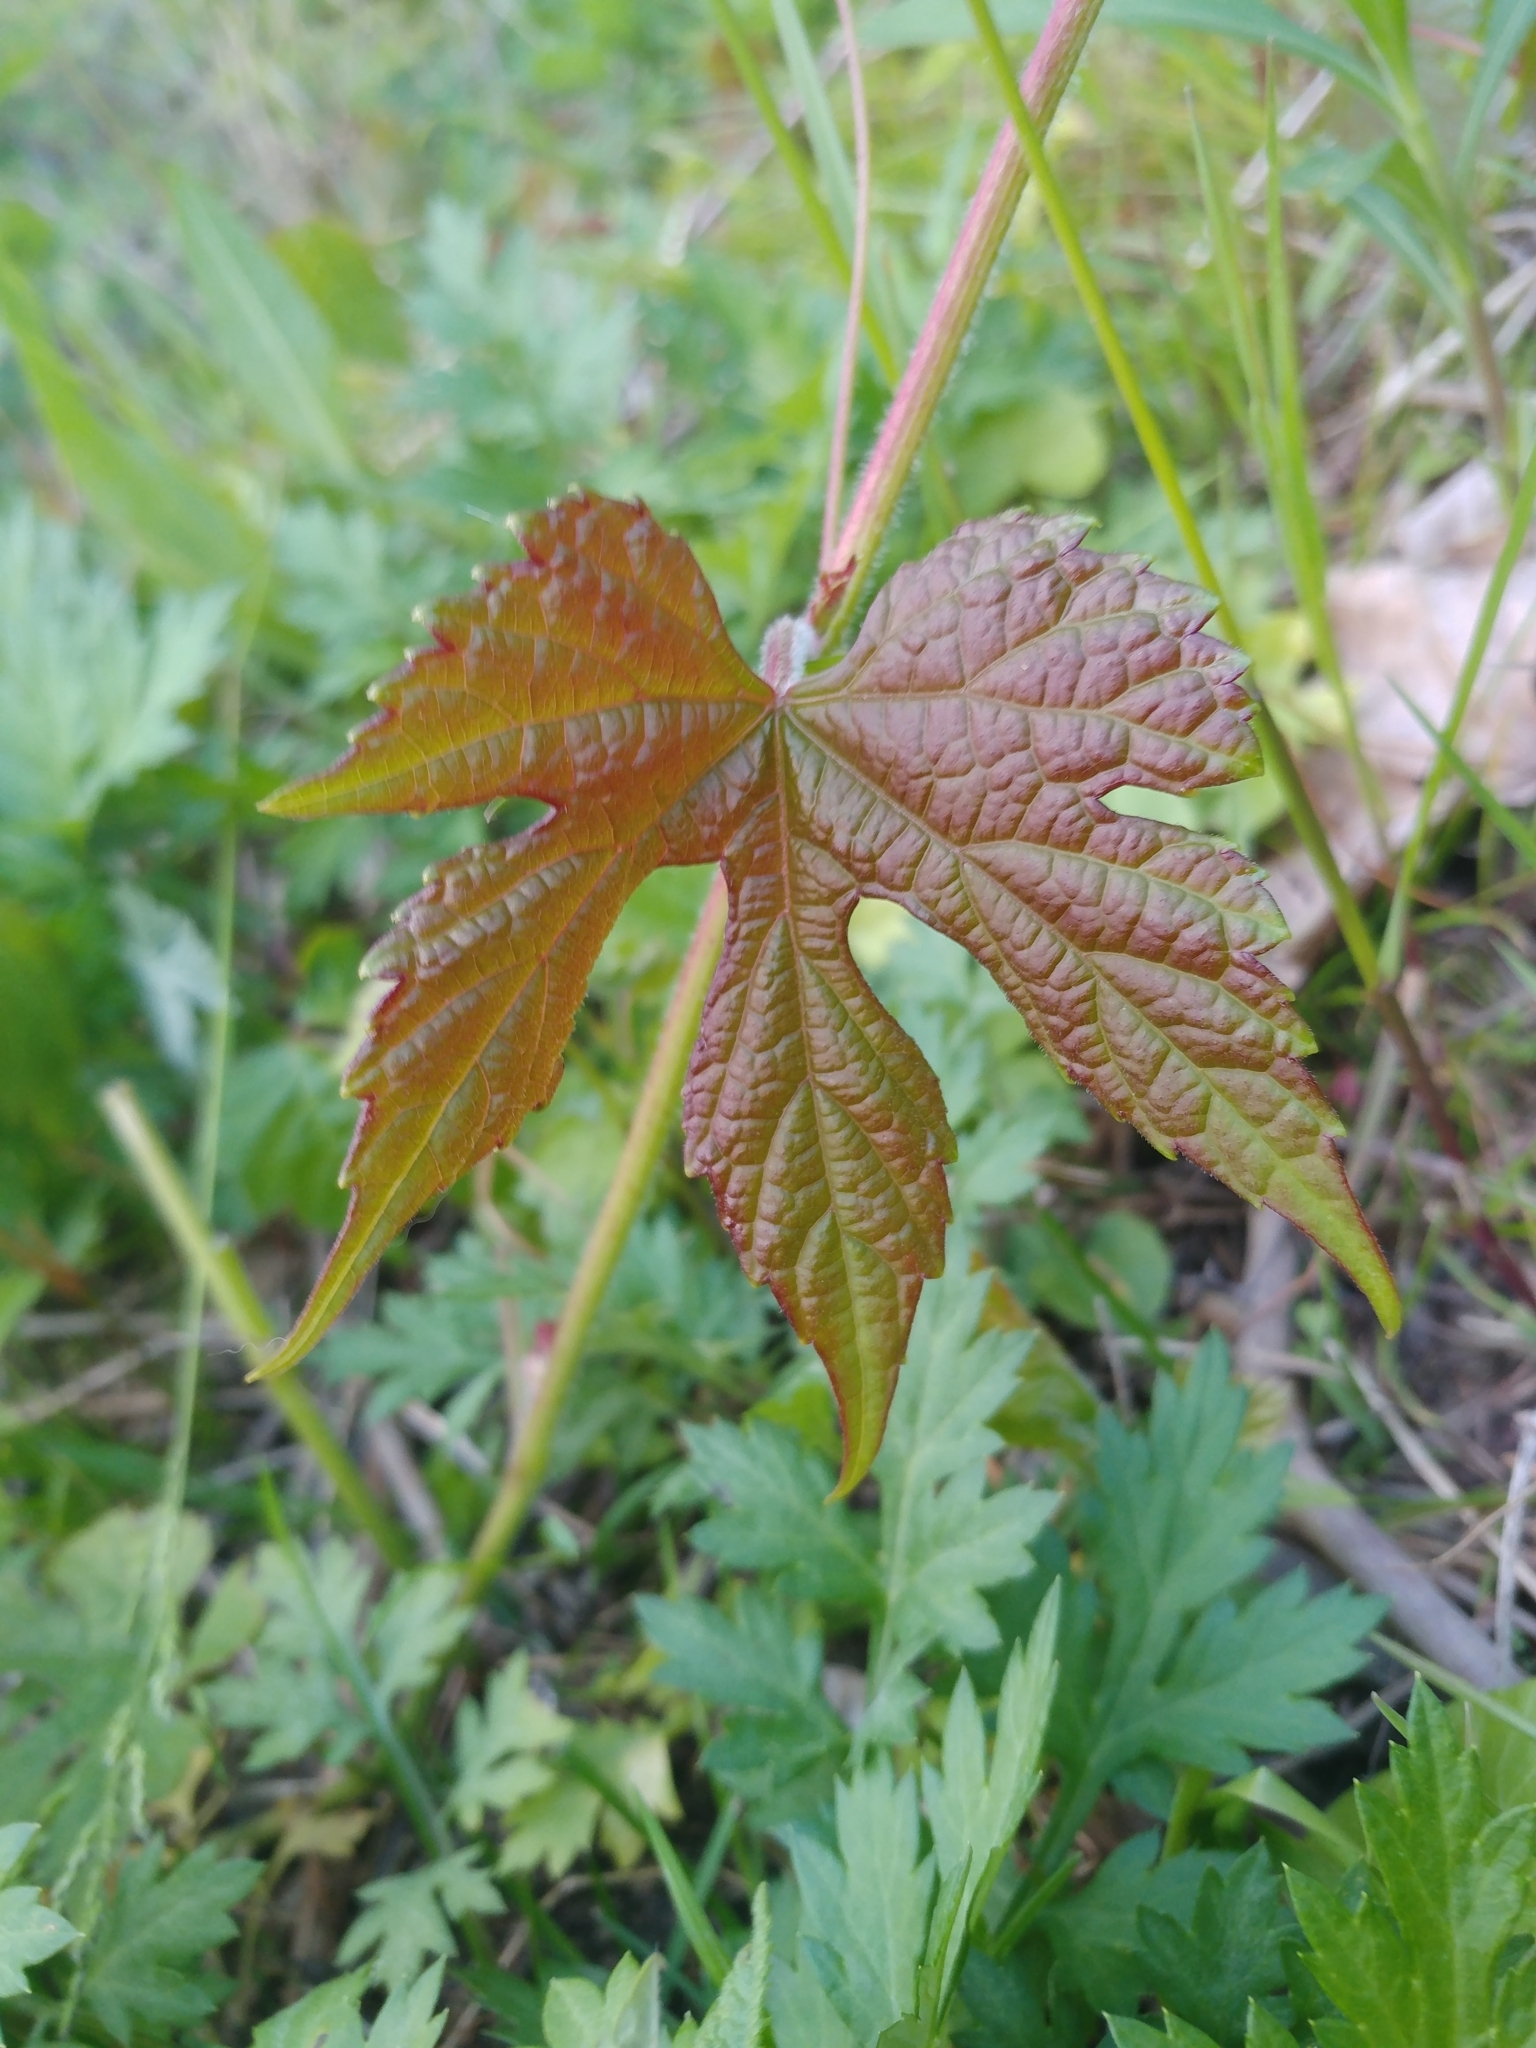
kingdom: Plantae
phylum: Tracheophyta
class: Magnoliopsida
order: Vitales
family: Vitaceae
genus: Ampelopsis
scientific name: Ampelopsis glandulosa
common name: Amur peppervine
